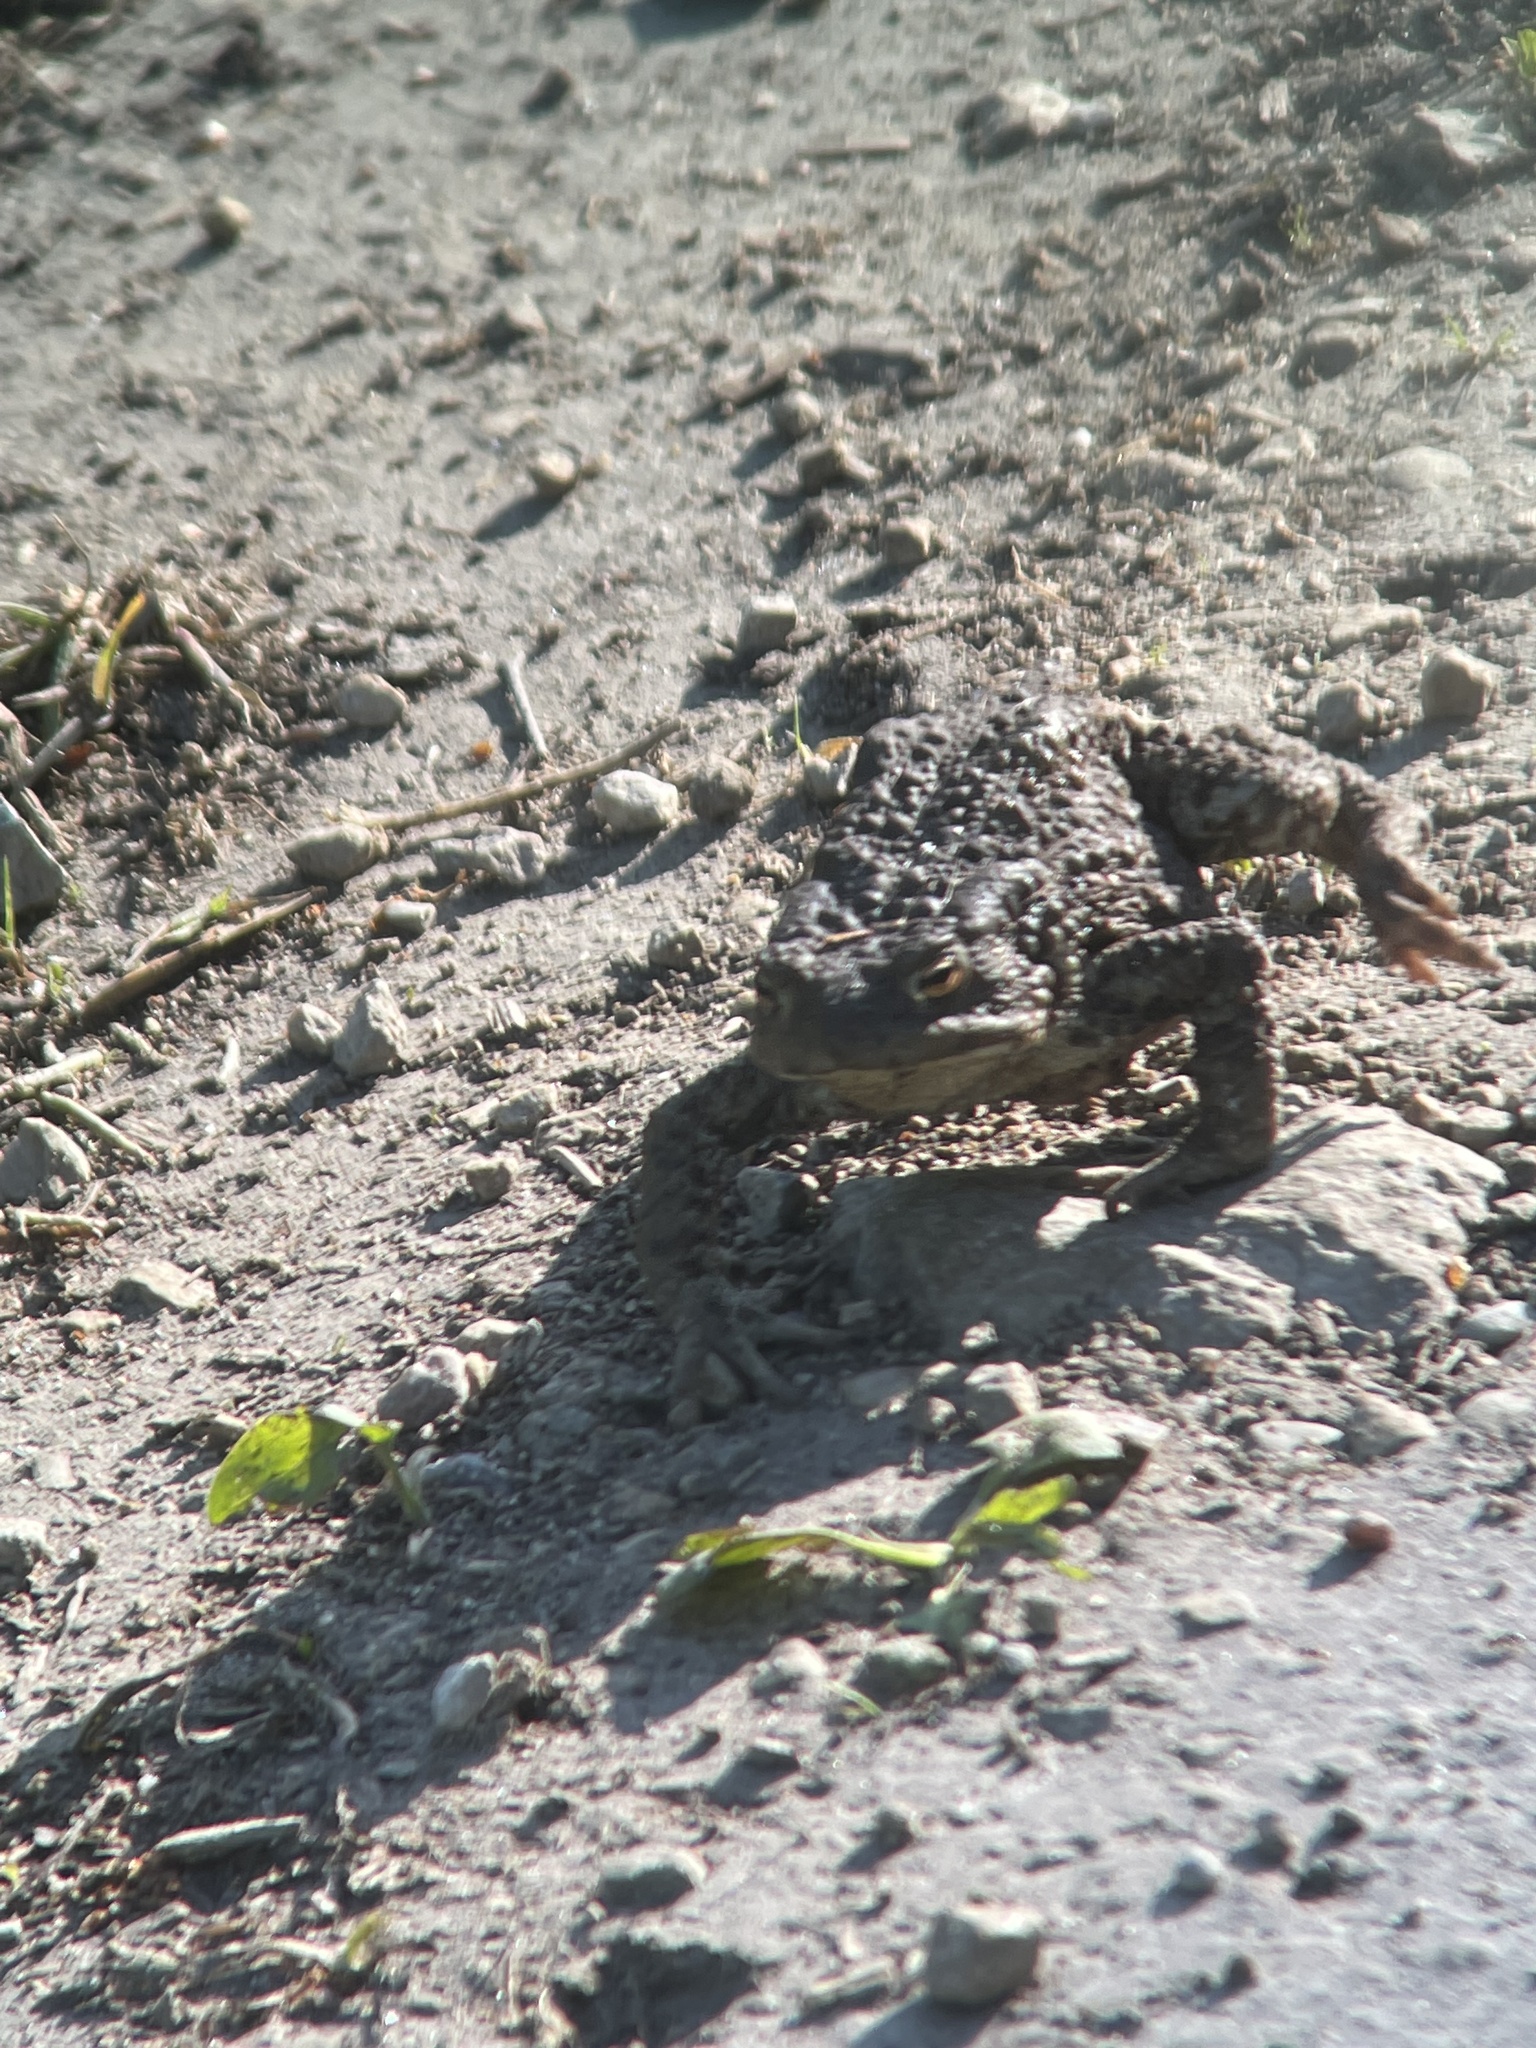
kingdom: Animalia
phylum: Chordata
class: Amphibia
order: Anura
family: Bufonidae
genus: Bufo
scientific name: Bufo bufo
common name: Common toad
